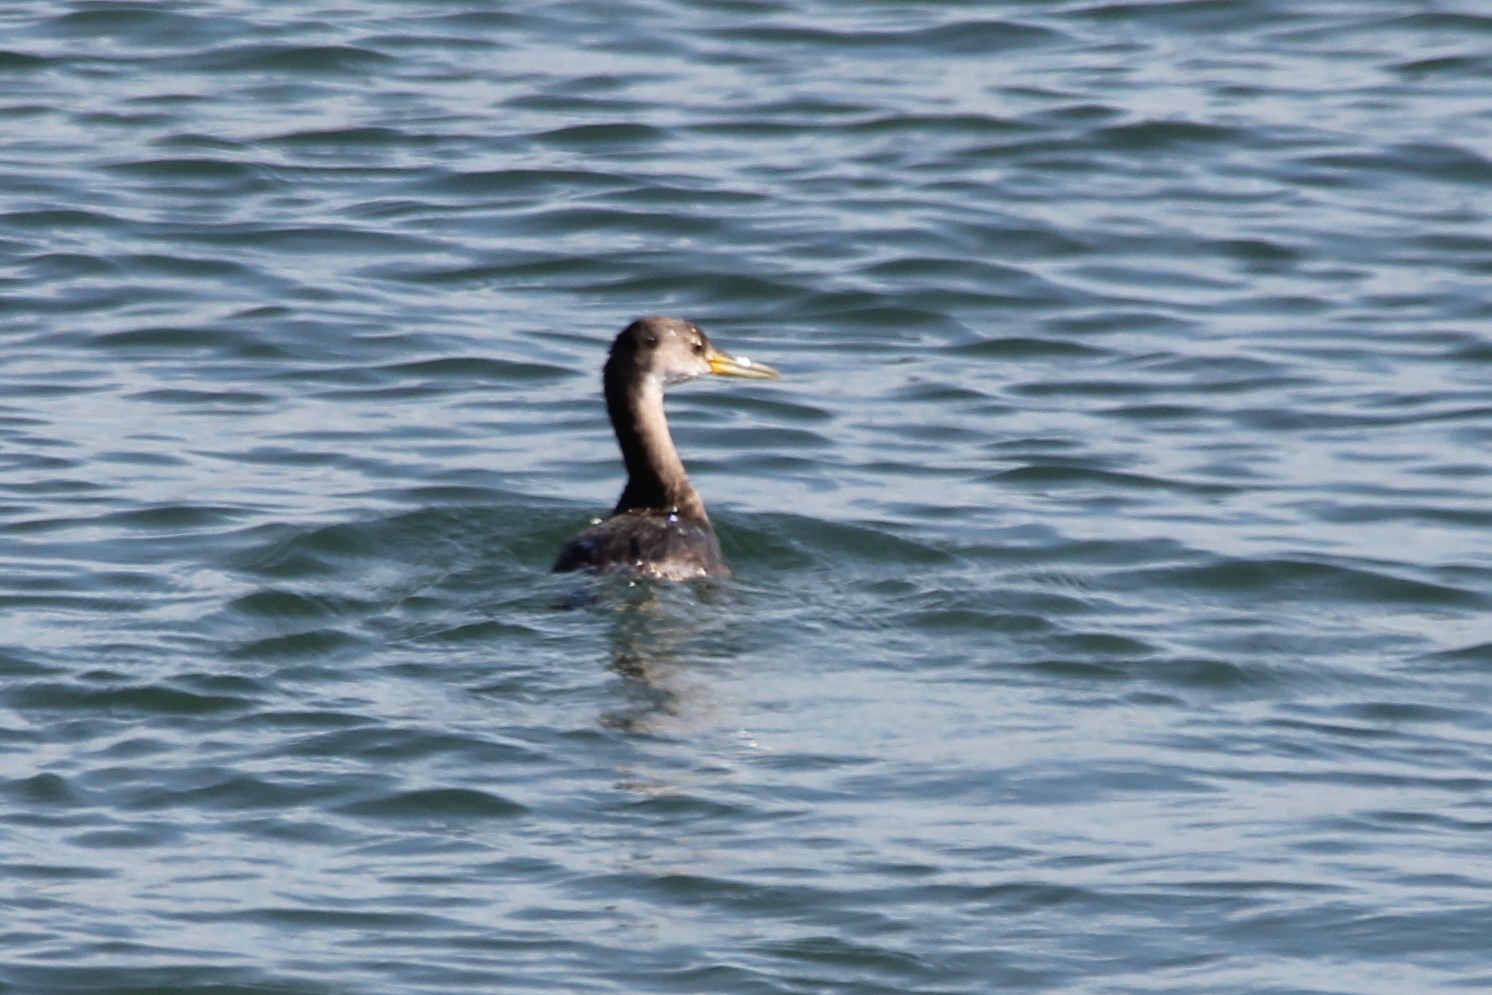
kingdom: Animalia
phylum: Chordata
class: Aves
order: Podicipediformes
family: Podicipedidae
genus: Podiceps
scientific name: Podiceps grisegena
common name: Red-necked grebe
